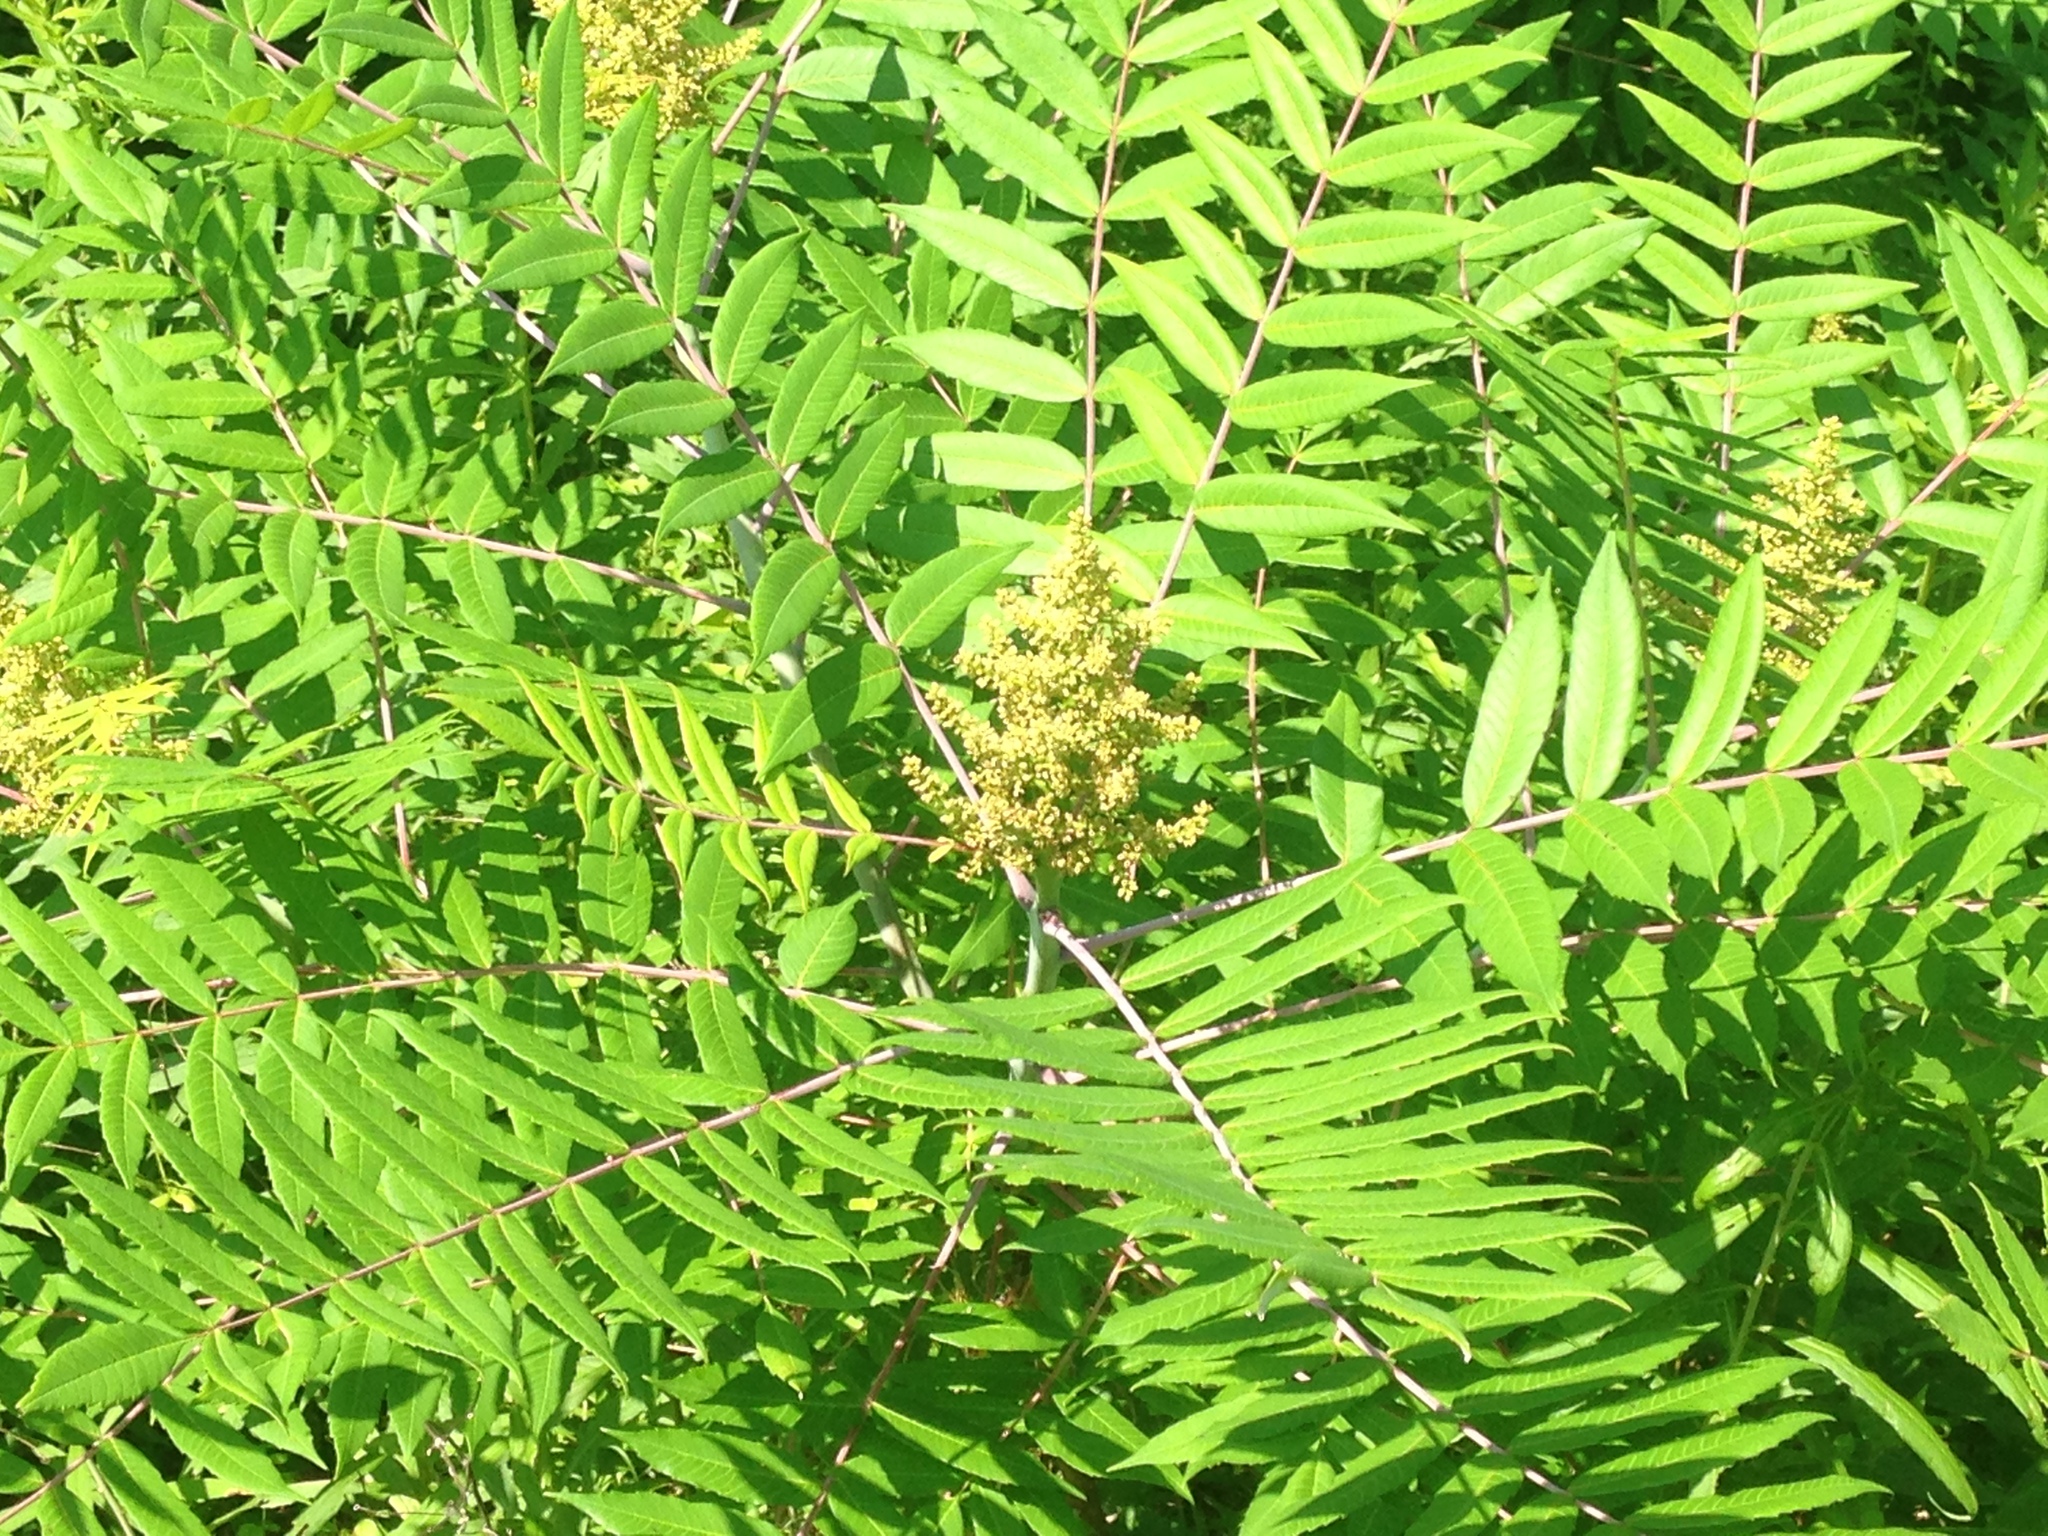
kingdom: Plantae
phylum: Tracheophyta
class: Magnoliopsida
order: Sapindales
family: Anacardiaceae
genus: Rhus
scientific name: Rhus glabra
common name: Scarlet sumac
